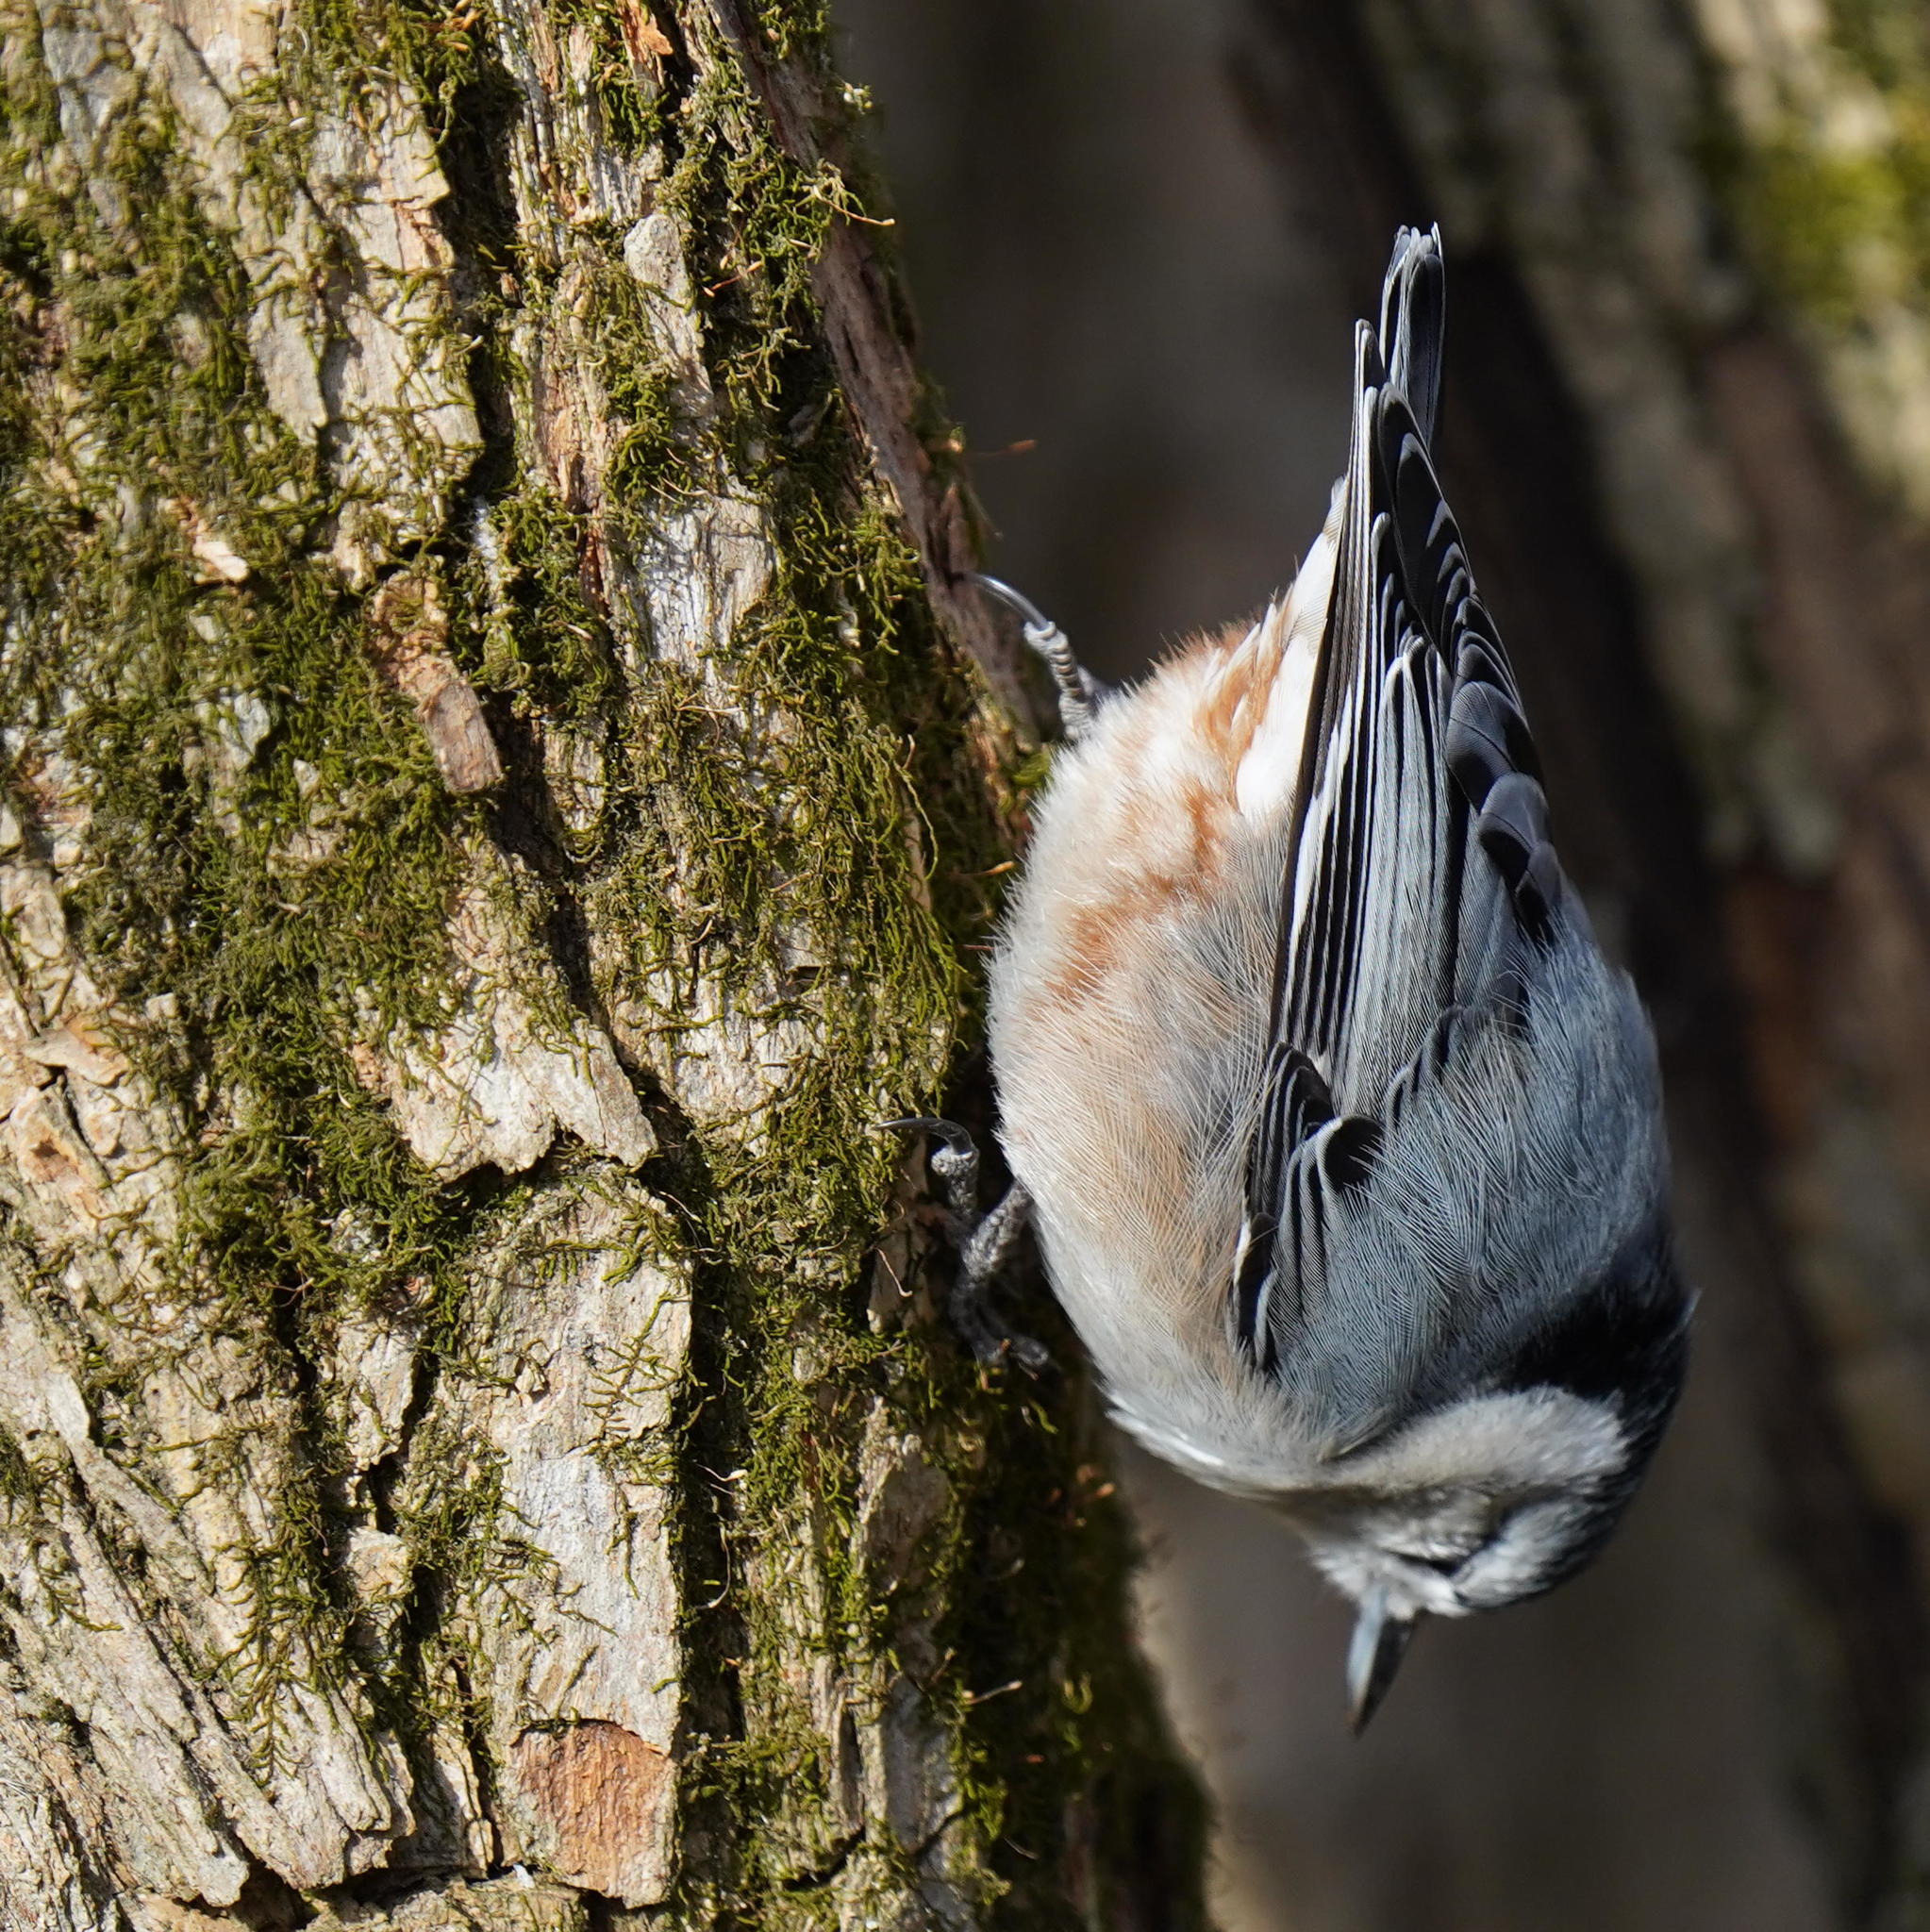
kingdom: Animalia
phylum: Chordata
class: Aves
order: Passeriformes
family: Sittidae
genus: Sitta
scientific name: Sitta carolinensis
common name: White-breasted nuthatch
